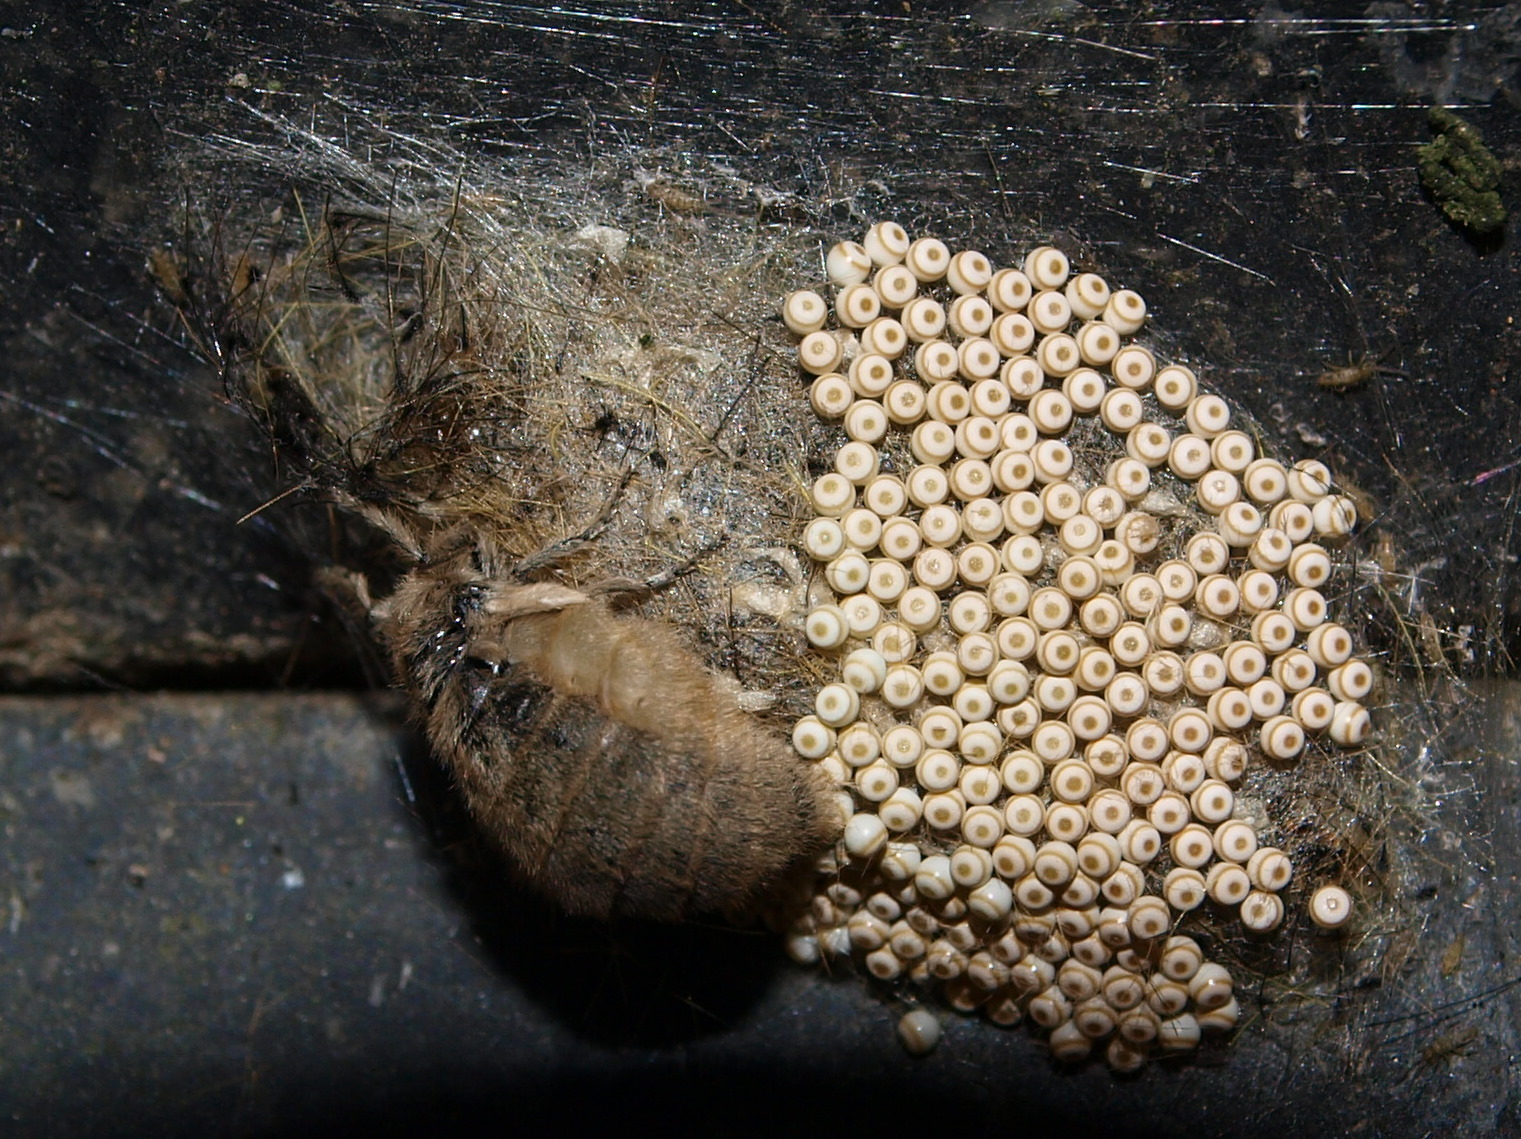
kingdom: Animalia
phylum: Arthropoda
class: Insecta
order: Lepidoptera
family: Erebidae
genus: Orgyia
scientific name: Orgyia antiqua
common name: Vapourer
